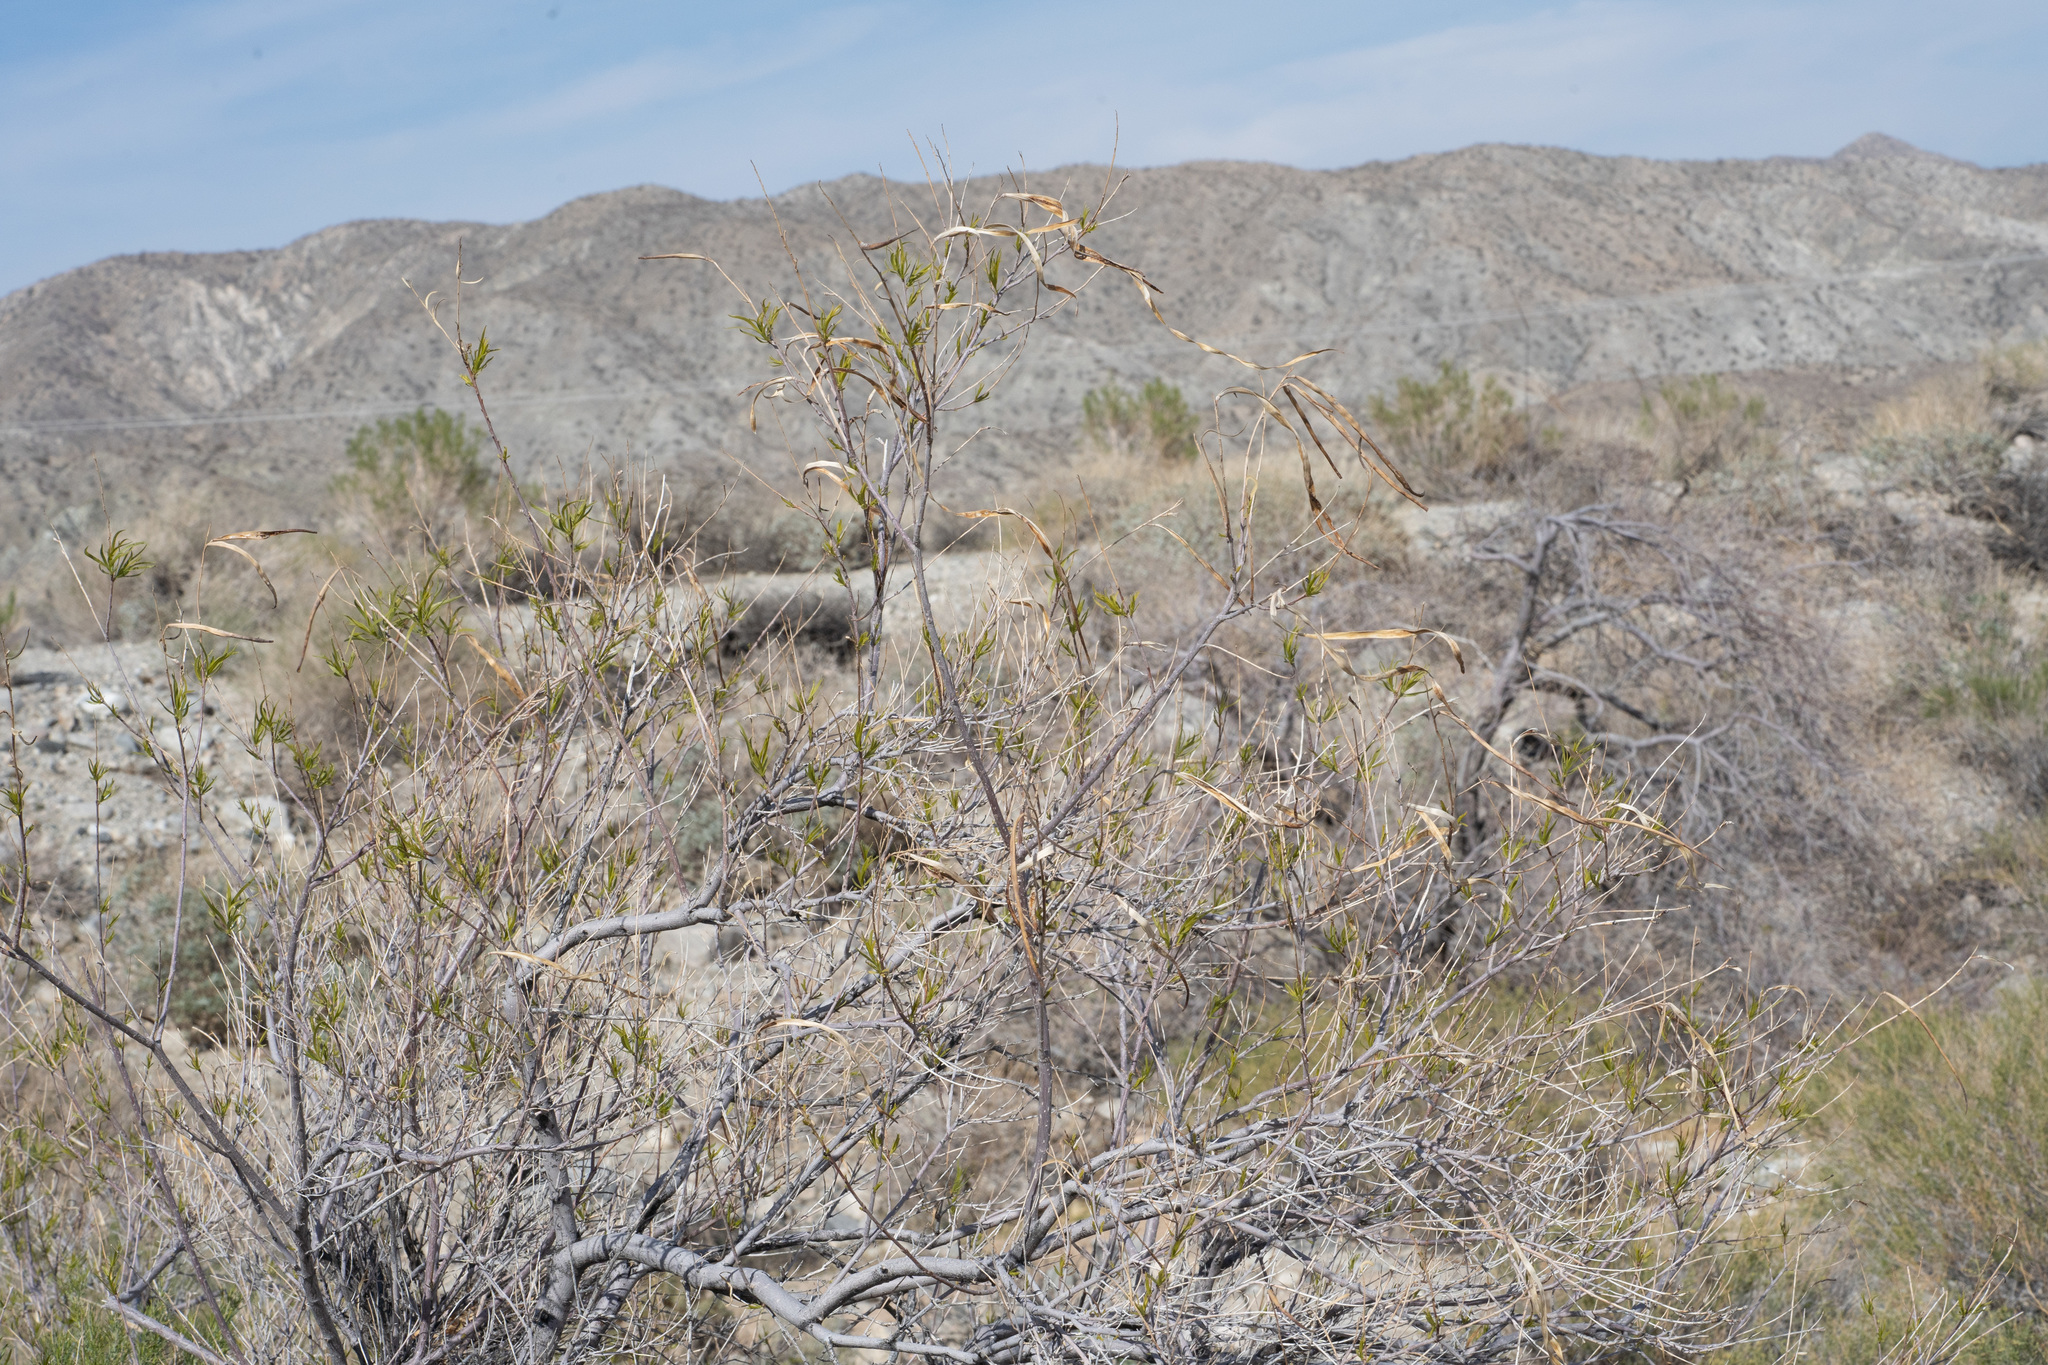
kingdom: Plantae
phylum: Tracheophyta
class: Magnoliopsida
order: Lamiales
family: Bignoniaceae
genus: Chilopsis
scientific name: Chilopsis linearis
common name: Desert-willow
